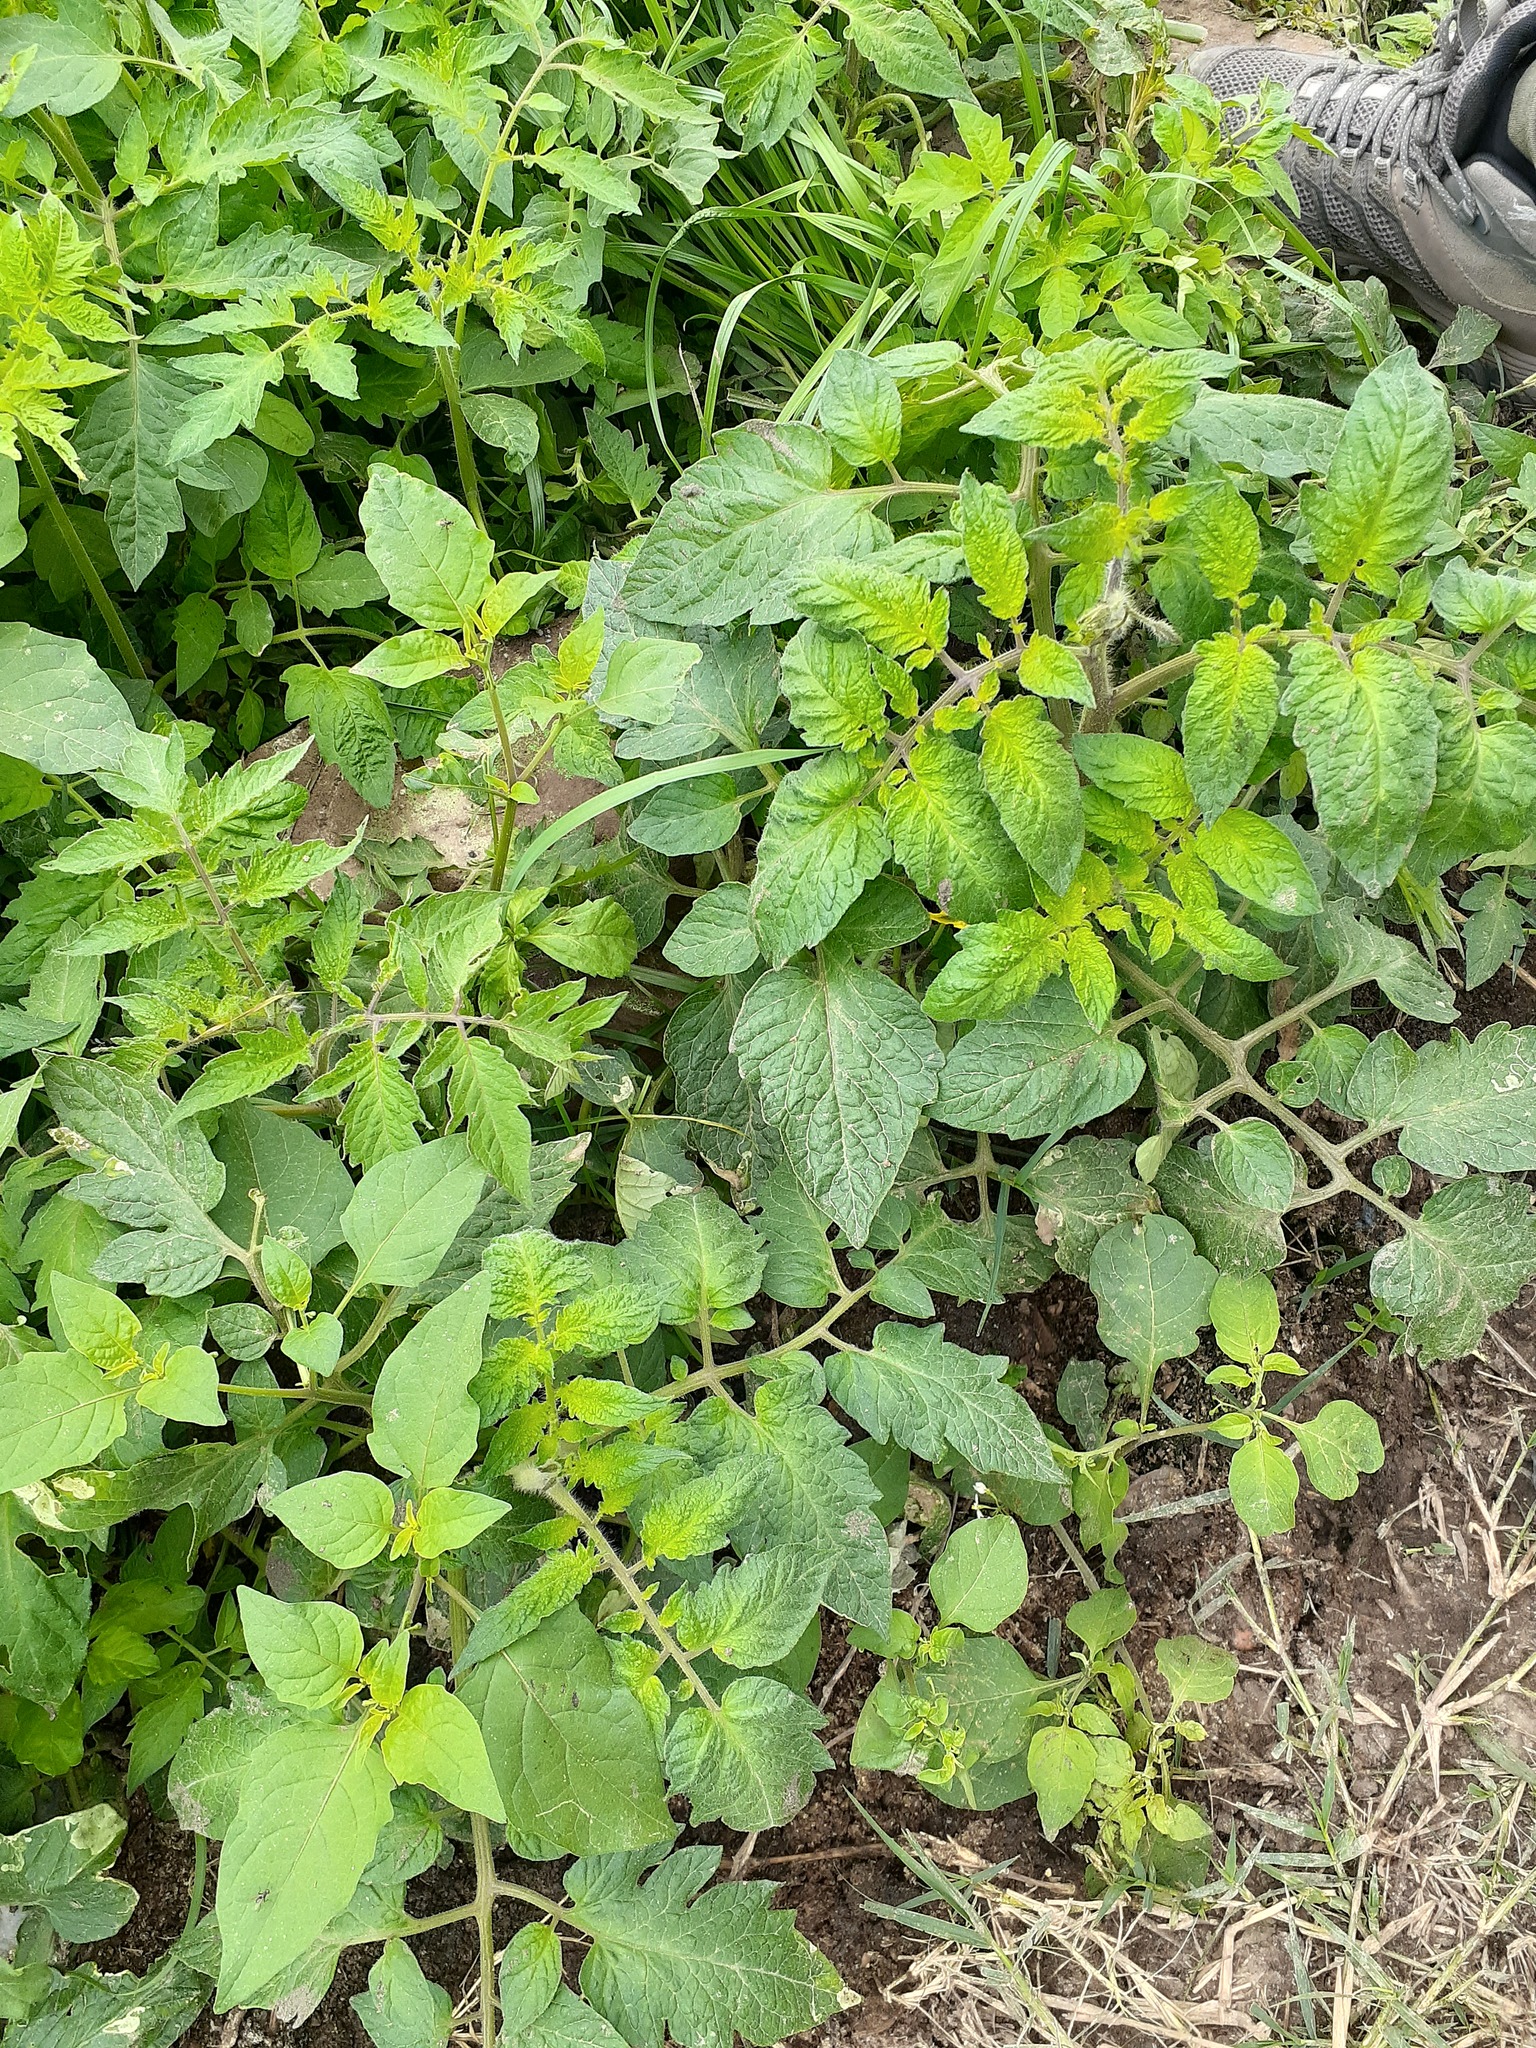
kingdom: Plantae
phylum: Tracheophyta
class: Magnoliopsida
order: Solanales
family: Solanaceae
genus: Solanum
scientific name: Solanum lycopersicum
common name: Garden tomato
